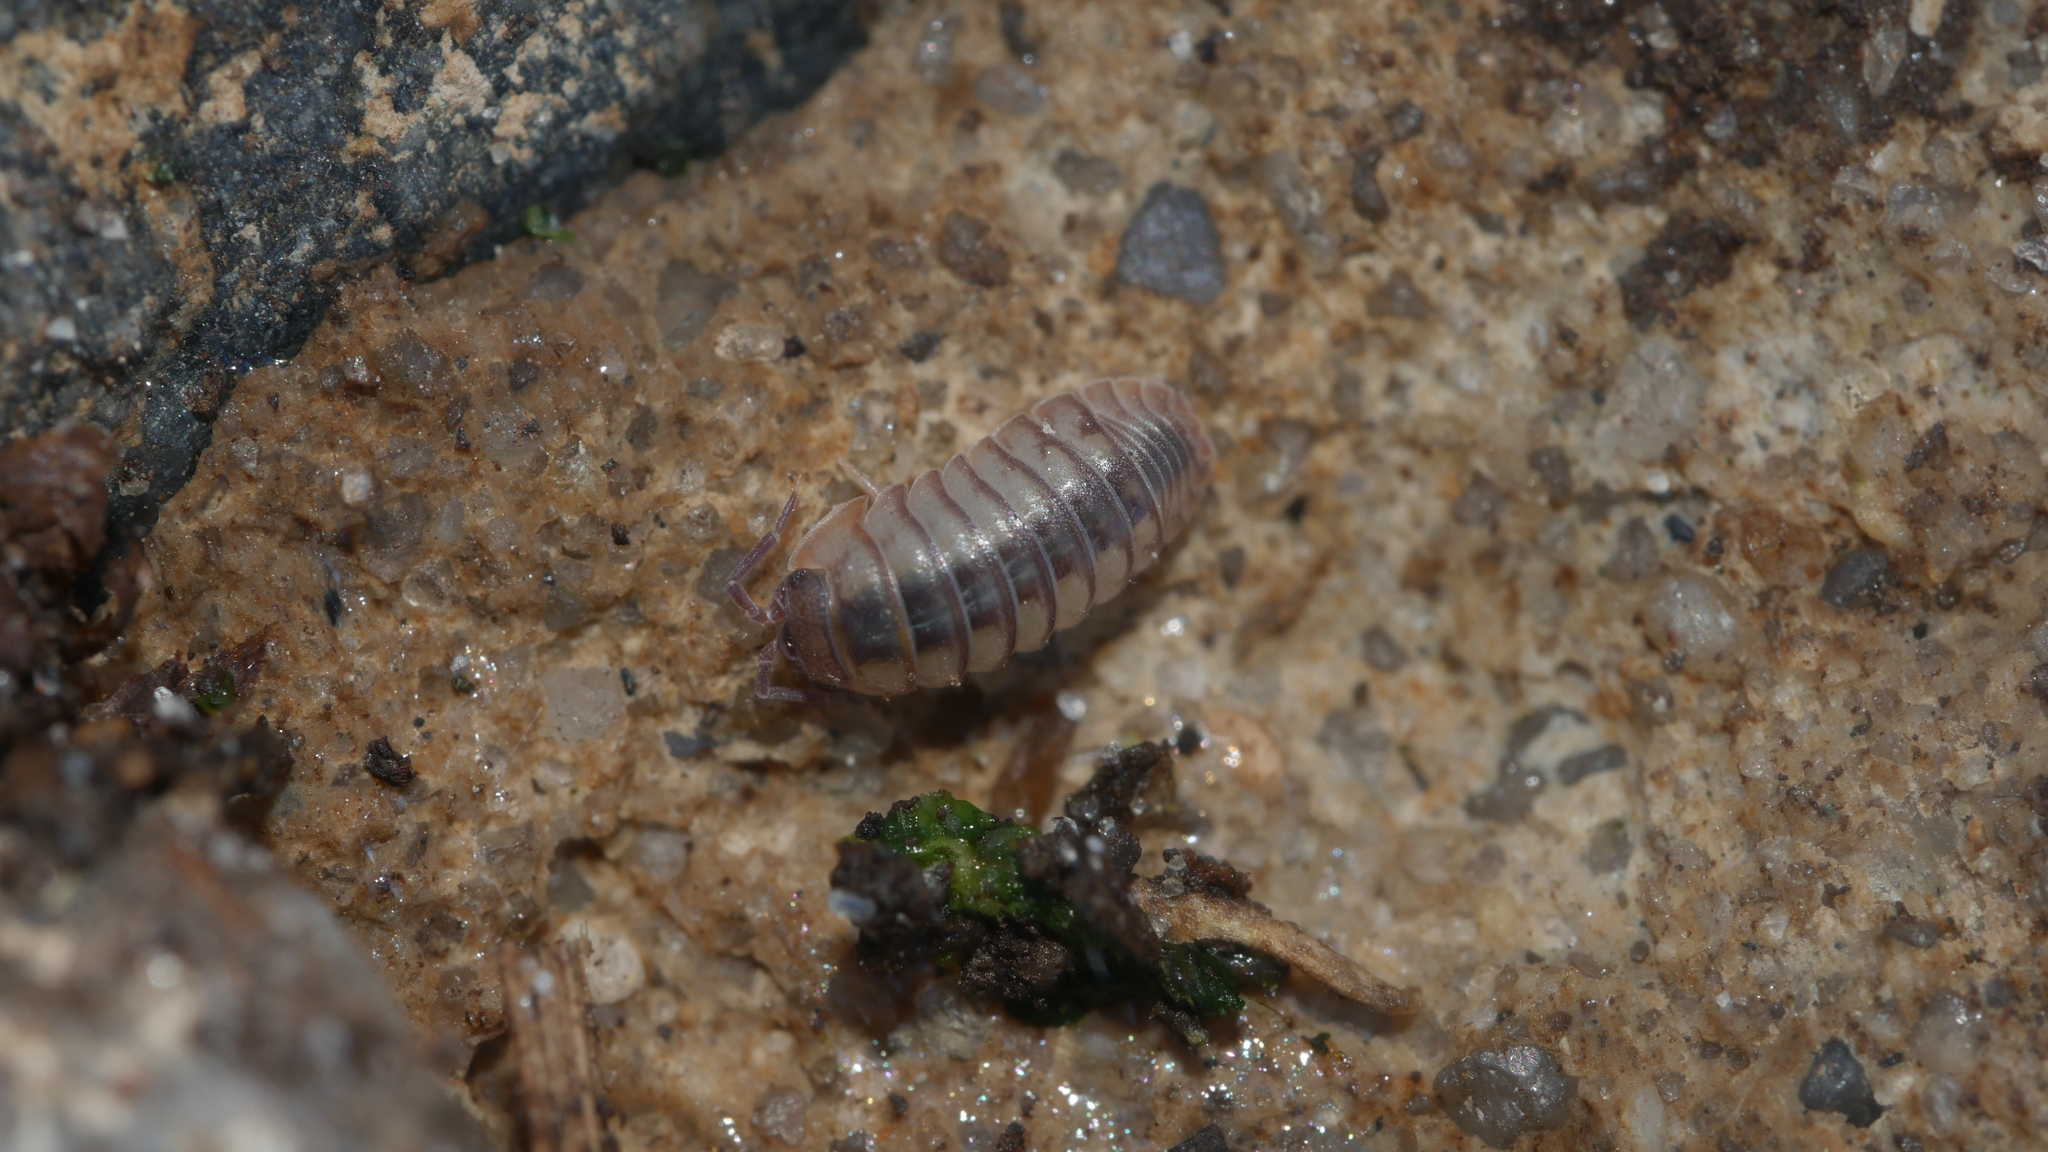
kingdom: Animalia
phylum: Arthropoda
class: Malacostraca
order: Isopoda
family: Armadillidiidae
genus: Armadillidium
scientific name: Armadillidium nasatum
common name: Isopod
